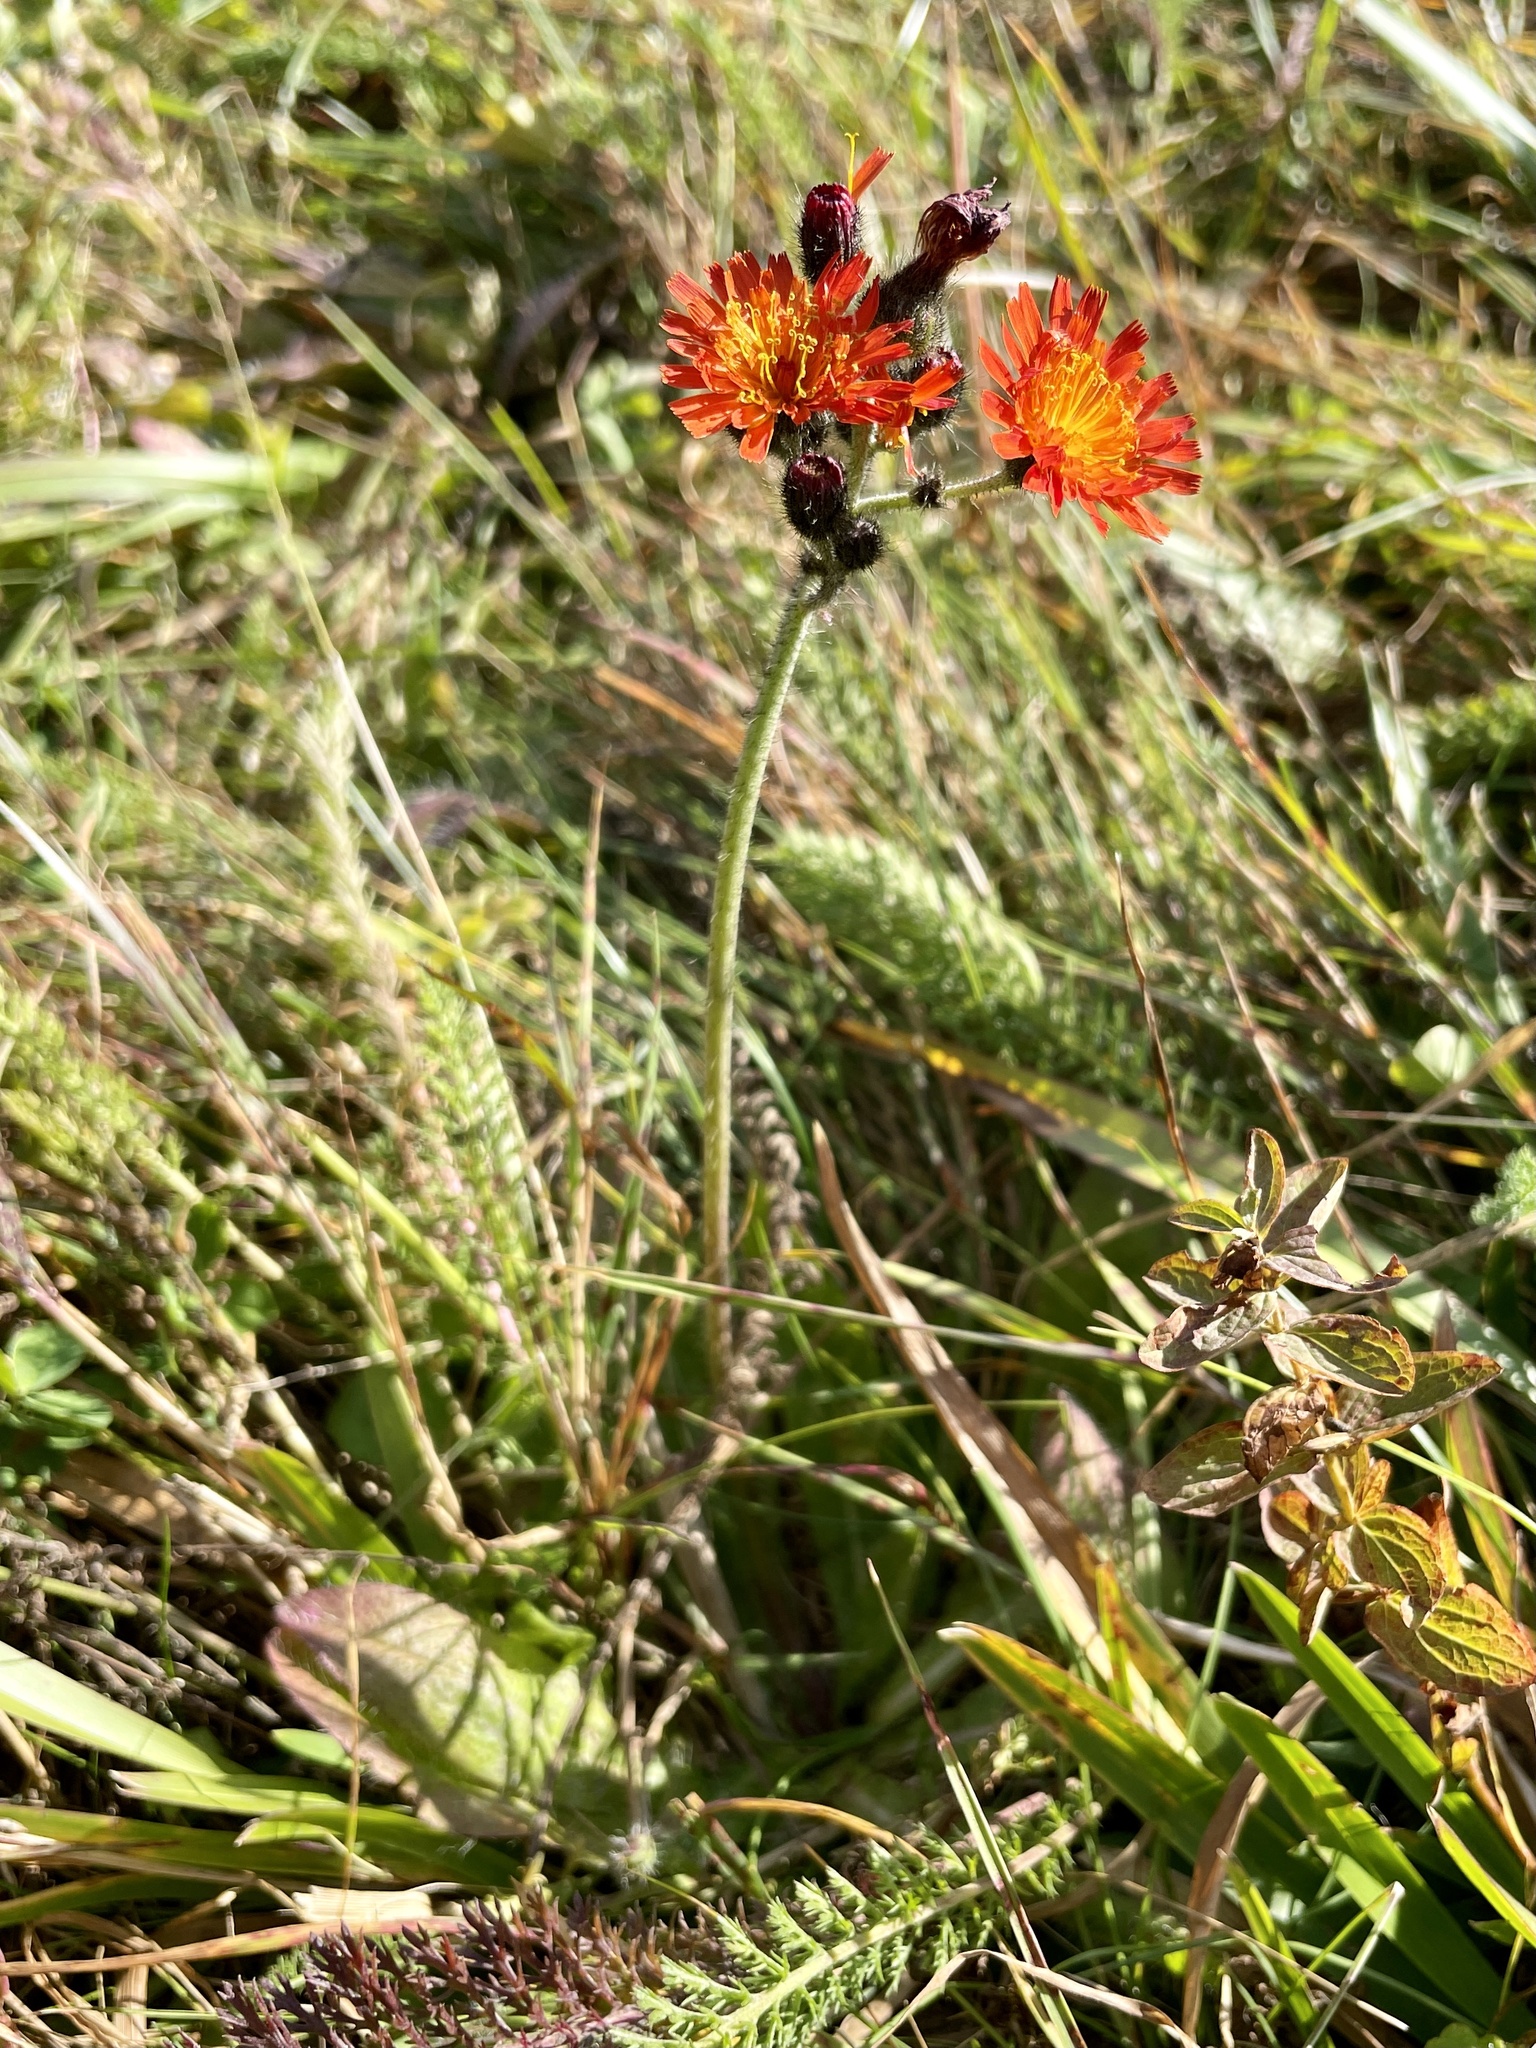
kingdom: Plantae
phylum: Tracheophyta
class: Magnoliopsida
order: Asterales
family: Asteraceae
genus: Pilosella
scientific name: Pilosella aurantiaca
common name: Fox-and-cubs
